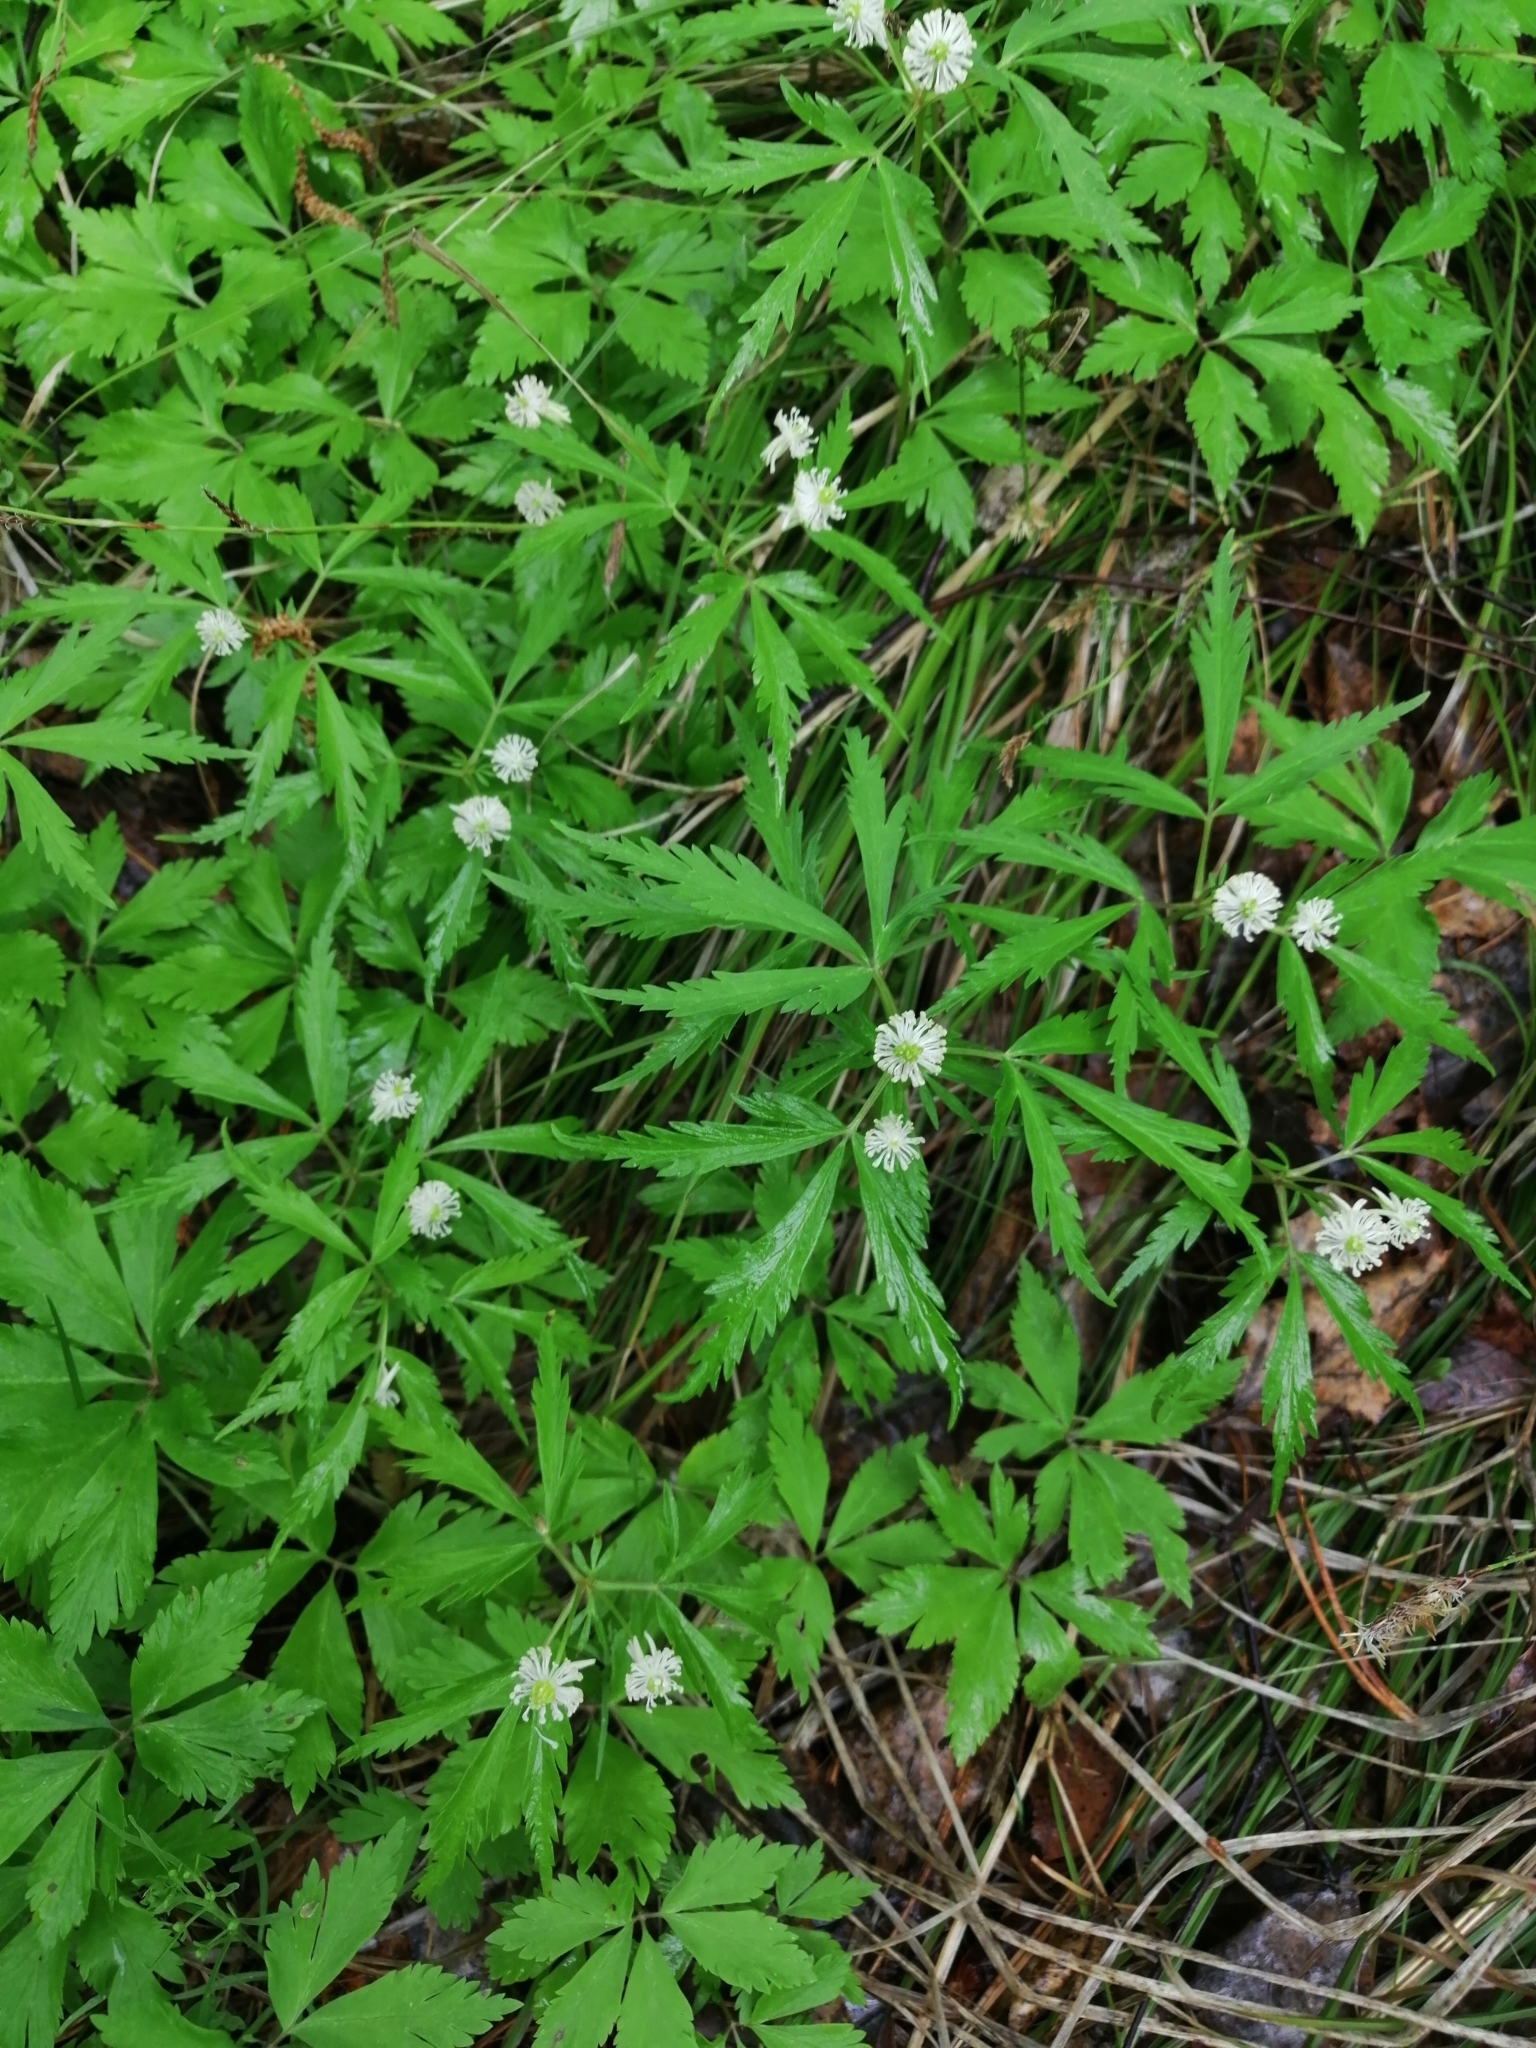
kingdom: Plantae
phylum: Tracheophyta
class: Magnoliopsida
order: Ranunculales
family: Ranunculaceae
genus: Anemone
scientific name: Anemone reflexa
